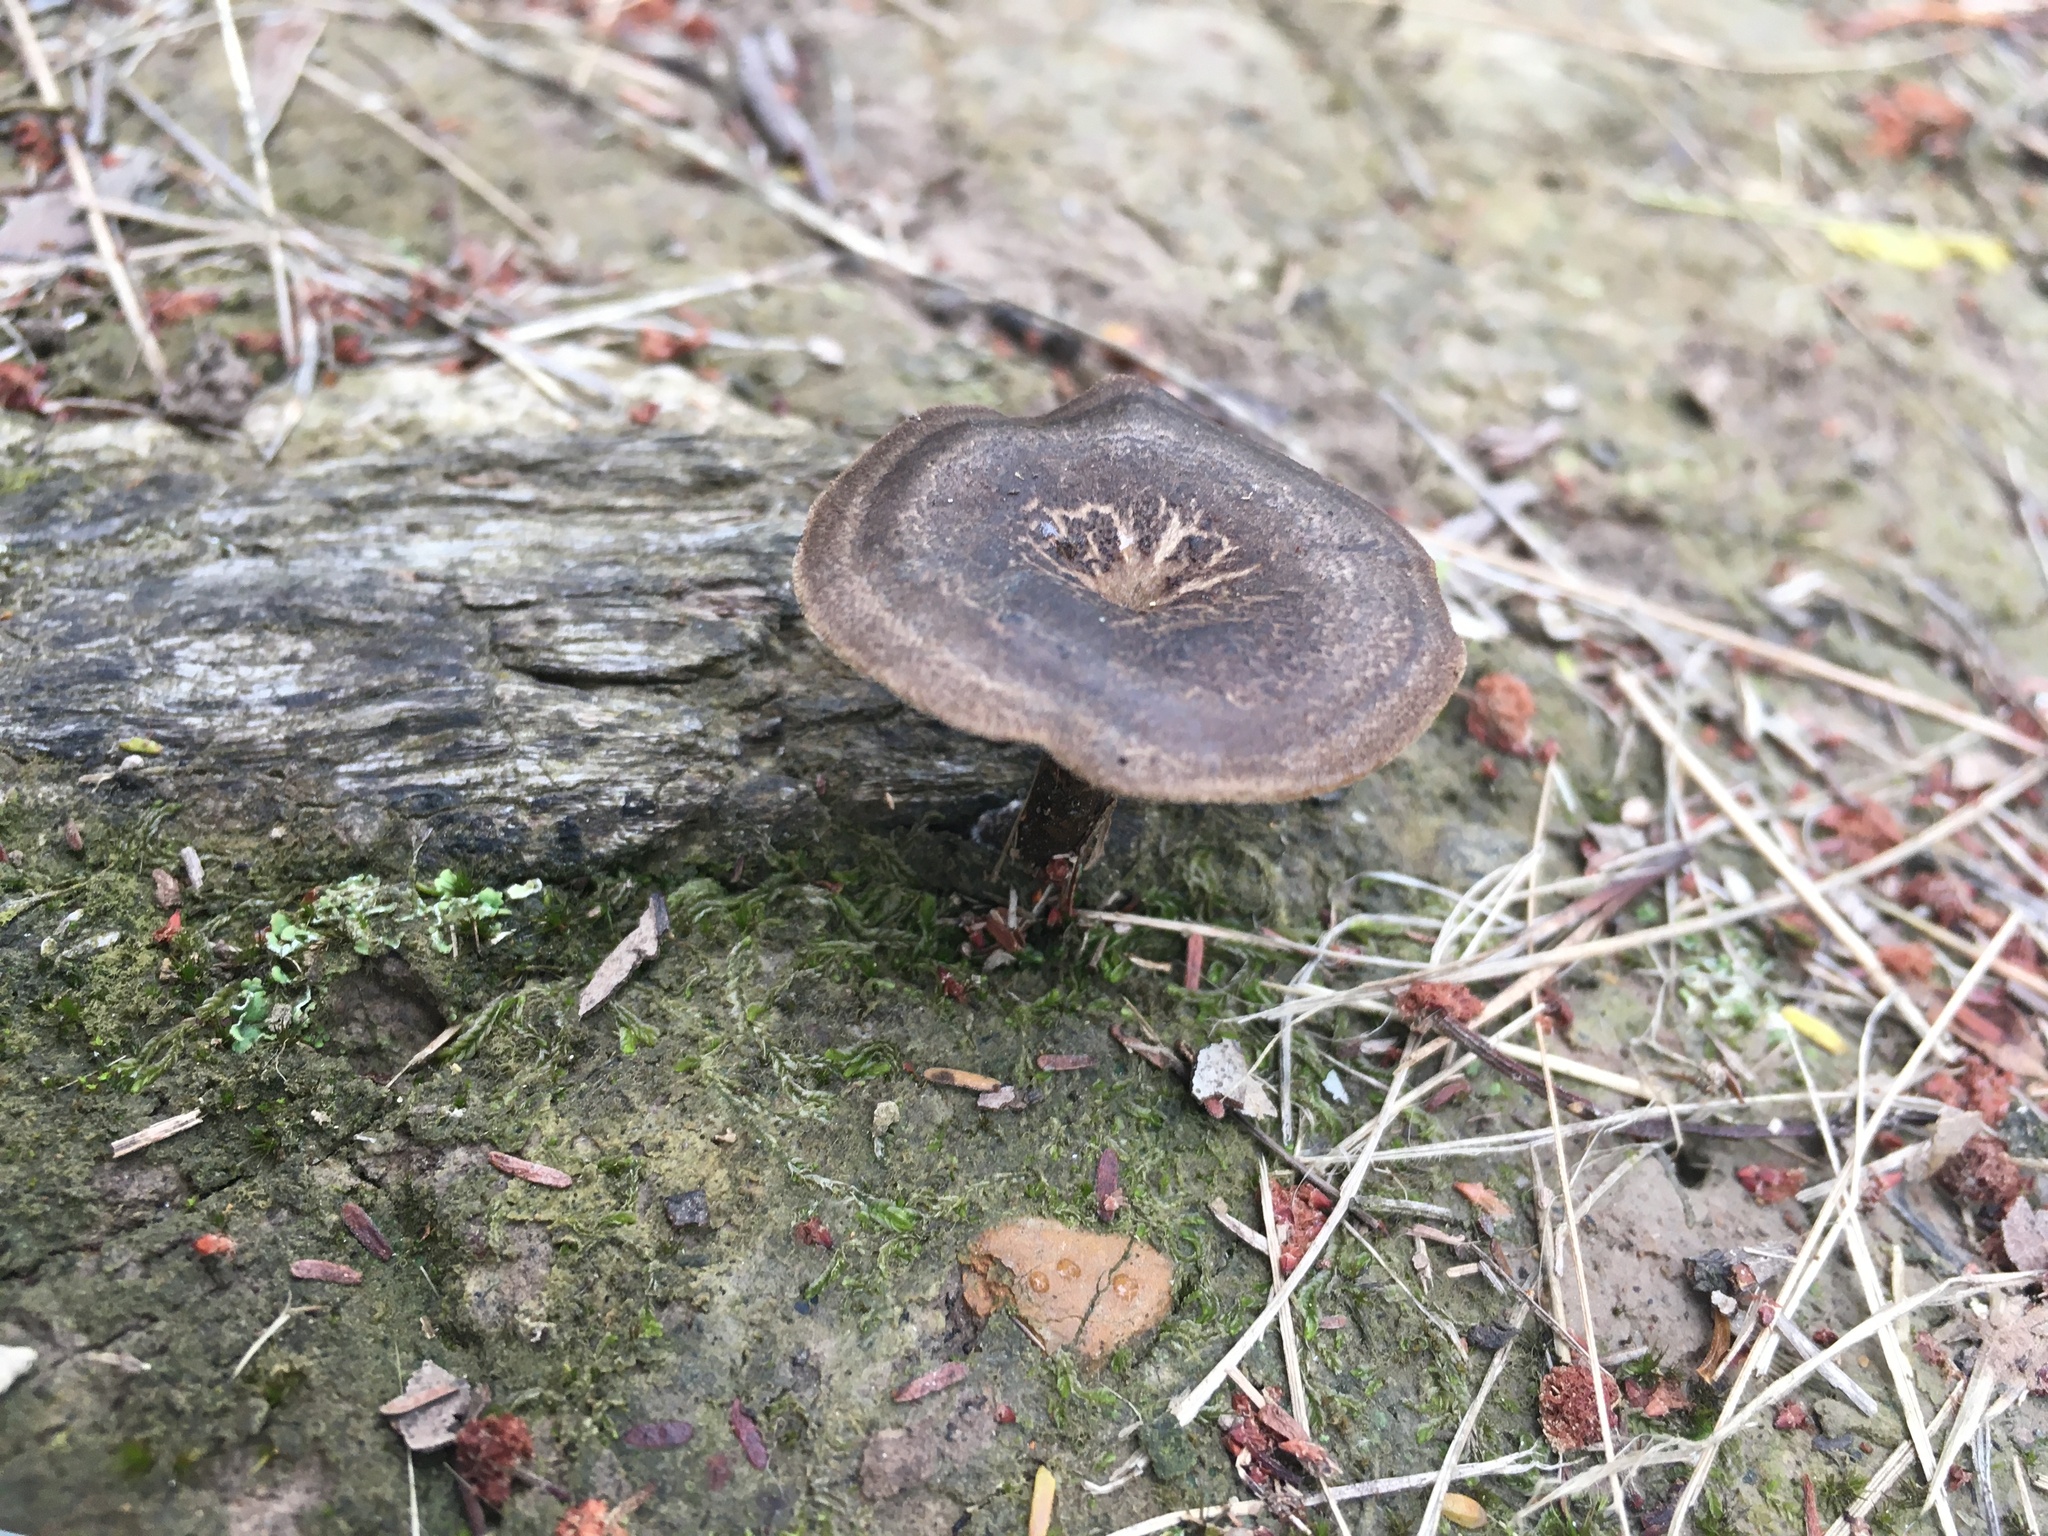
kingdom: Fungi
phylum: Basidiomycota
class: Agaricomycetes
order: Polyporales
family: Polyporaceae
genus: Lentinus
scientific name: Lentinus arcularius
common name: Spring polypore
